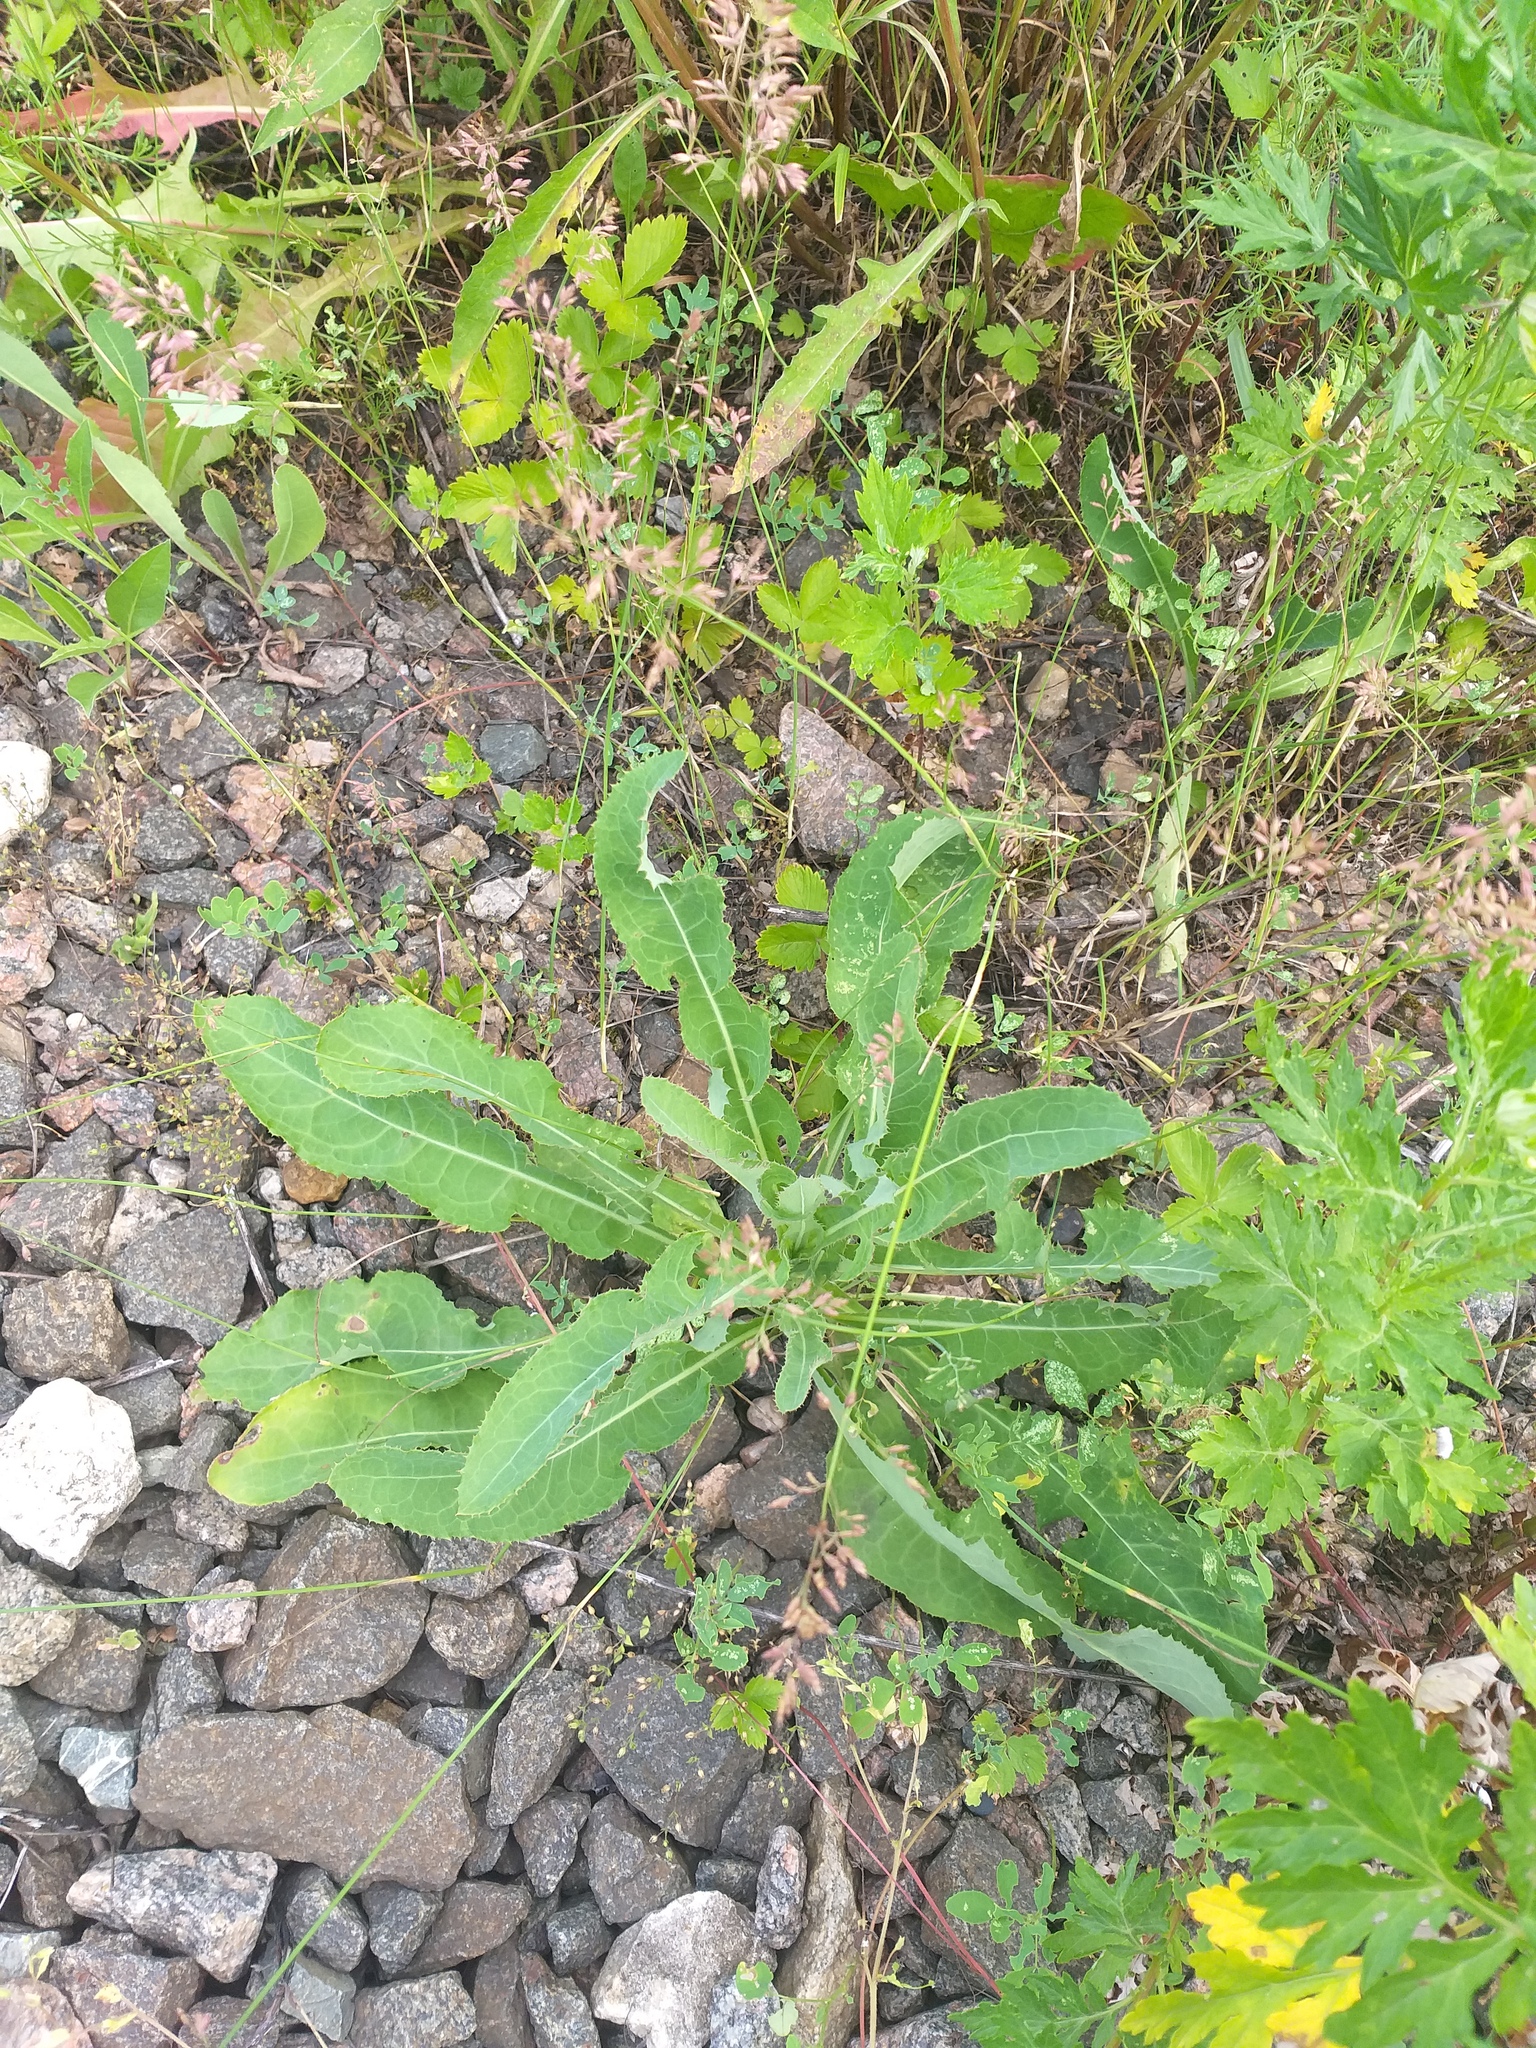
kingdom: Plantae
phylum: Tracheophyta
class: Magnoliopsida
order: Asterales
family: Asteraceae
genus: Sonchus
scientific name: Sonchus arvensis
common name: Perennial sow-thistle
